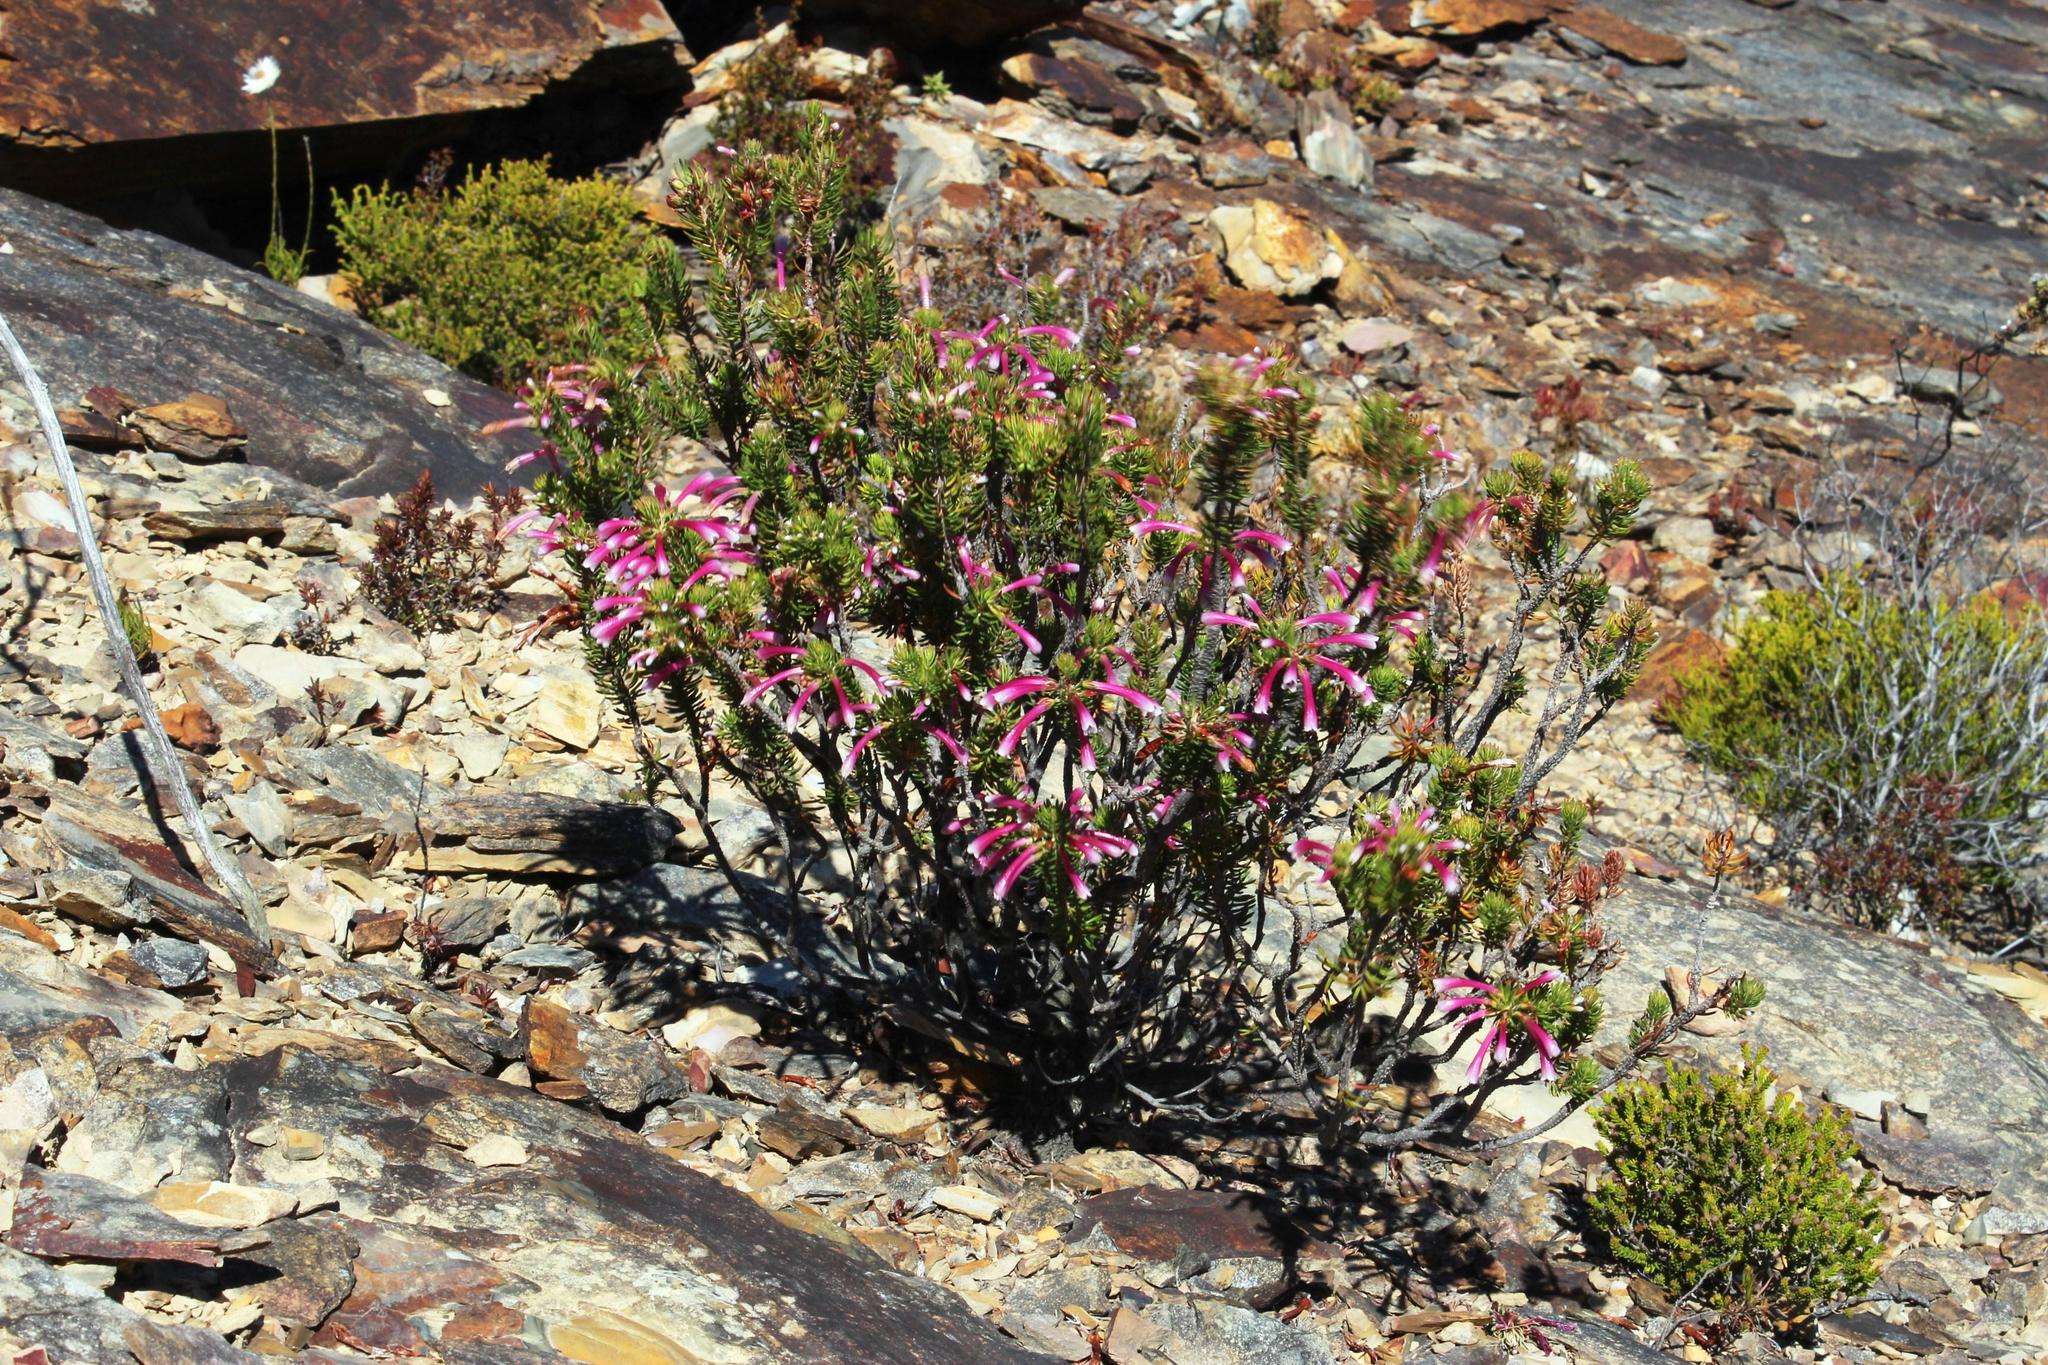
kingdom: Plantae
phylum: Tracheophyta
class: Magnoliopsida
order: Ericales
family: Ericaceae
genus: Erica
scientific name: Erica thomae
